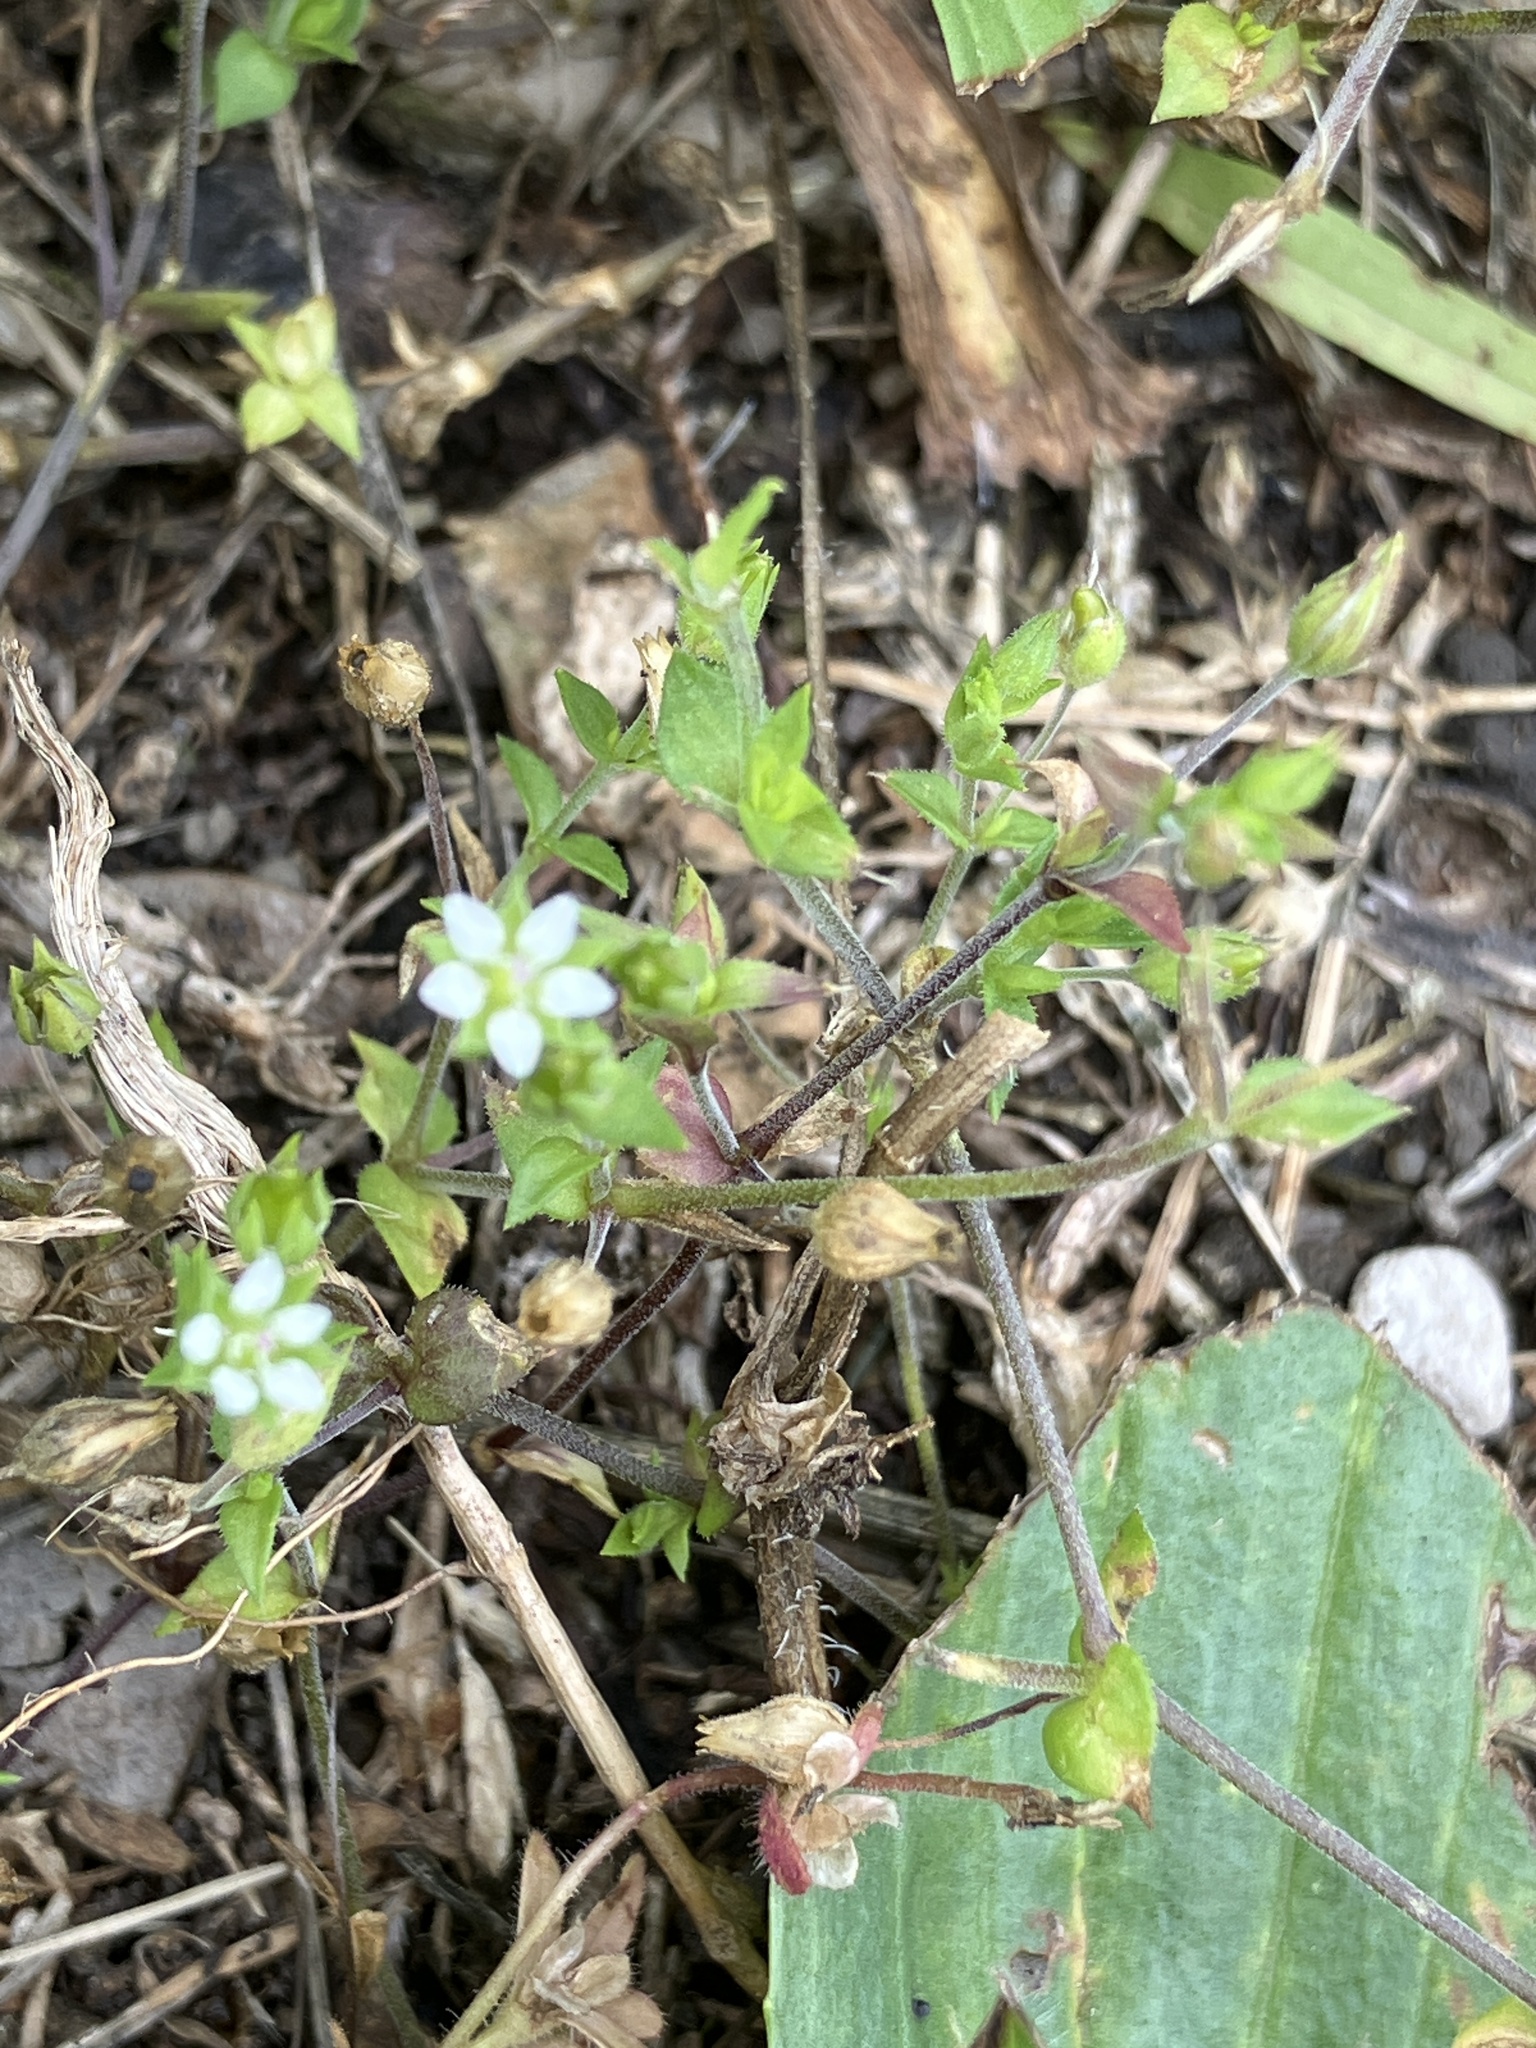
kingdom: Plantae
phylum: Tracheophyta
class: Magnoliopsida
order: Caryophyllales
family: Caryophyllaceae
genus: Arenaria
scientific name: Arenaria serpyllifolia
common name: Thyme-leaved sandwort
